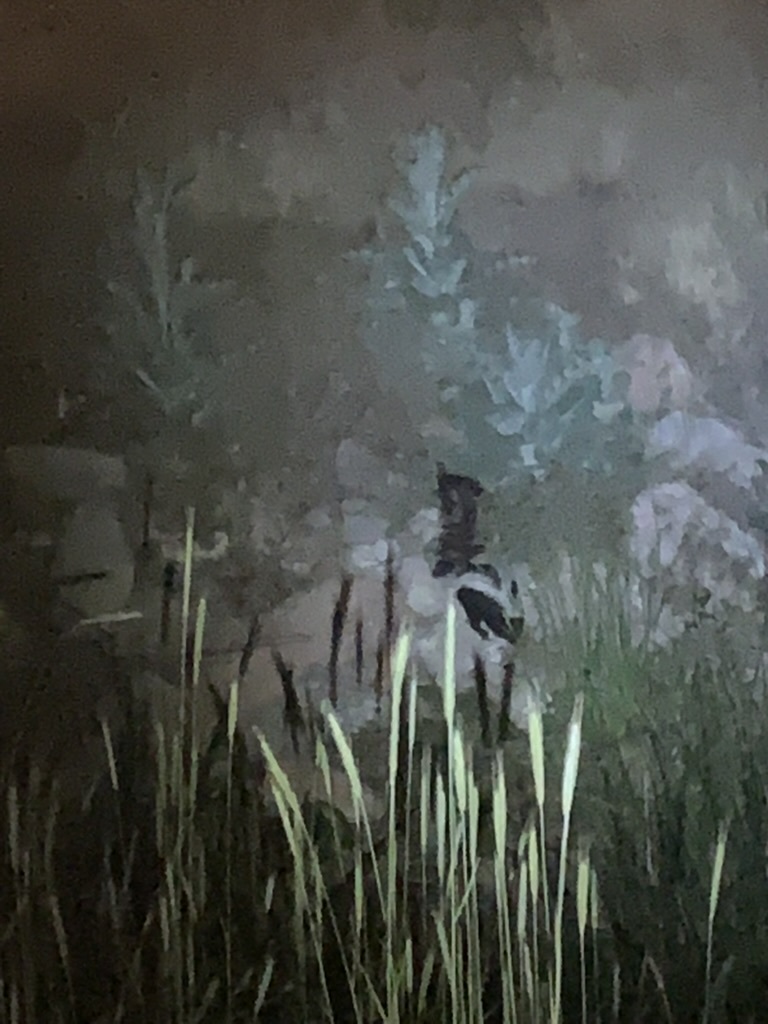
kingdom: Animalia
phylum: Chordata
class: Mammalia
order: Carnivora
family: Mephitidae
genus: Mephitis
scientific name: Mephitis mephitis
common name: Striped skunk
